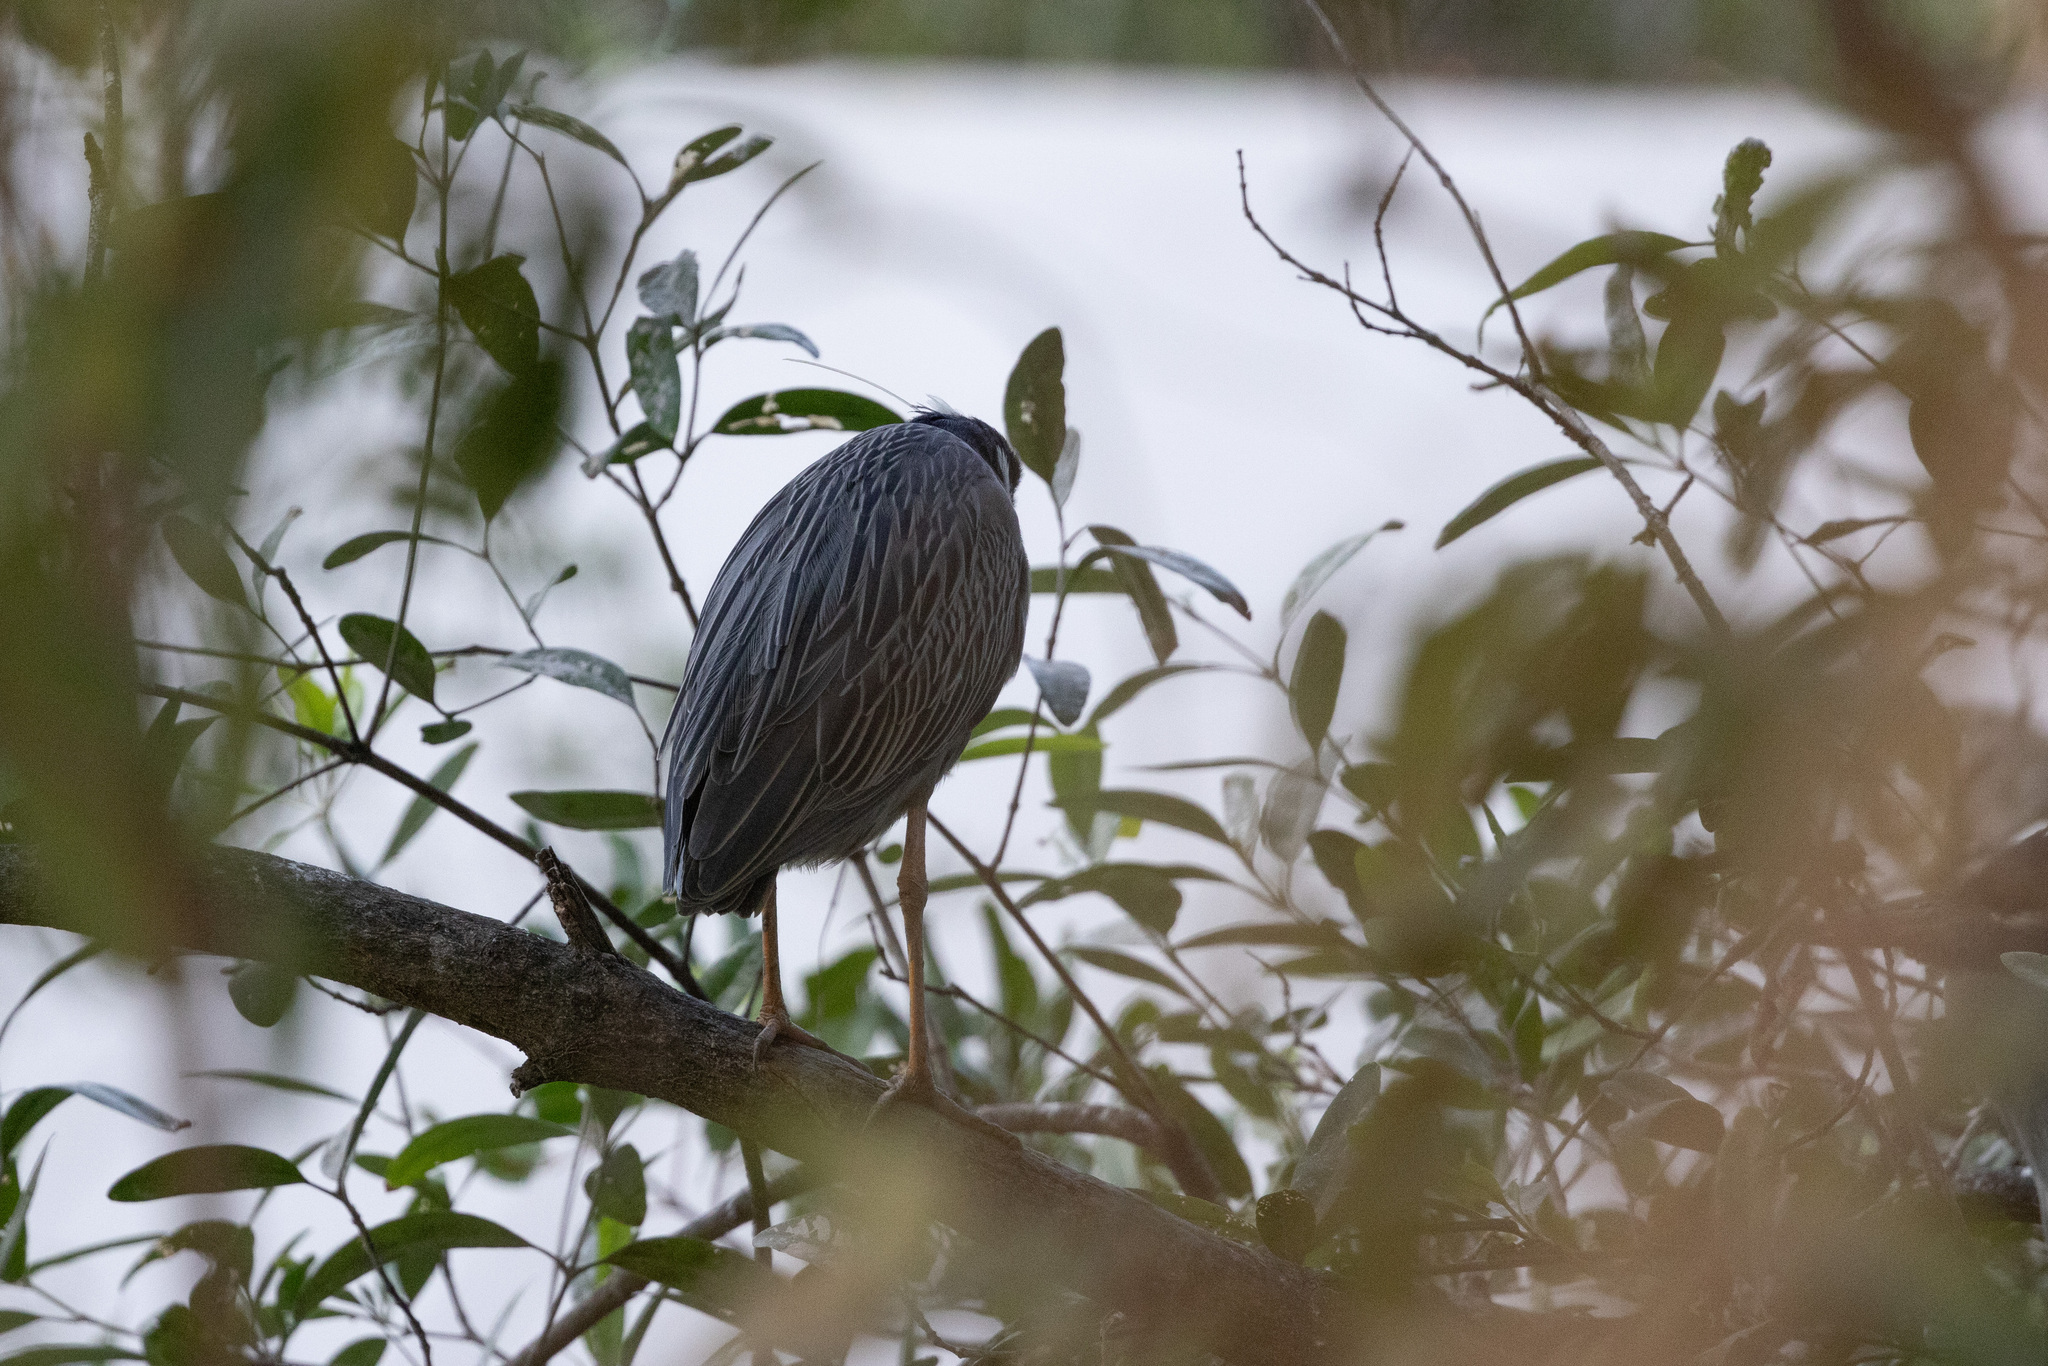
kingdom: Animalia
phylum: Chordata
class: Aves
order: Pelecaniformes
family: Ardeidae
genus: Nyctanassa
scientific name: Nyctanassa violacea
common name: Yellow-crowned night heron
